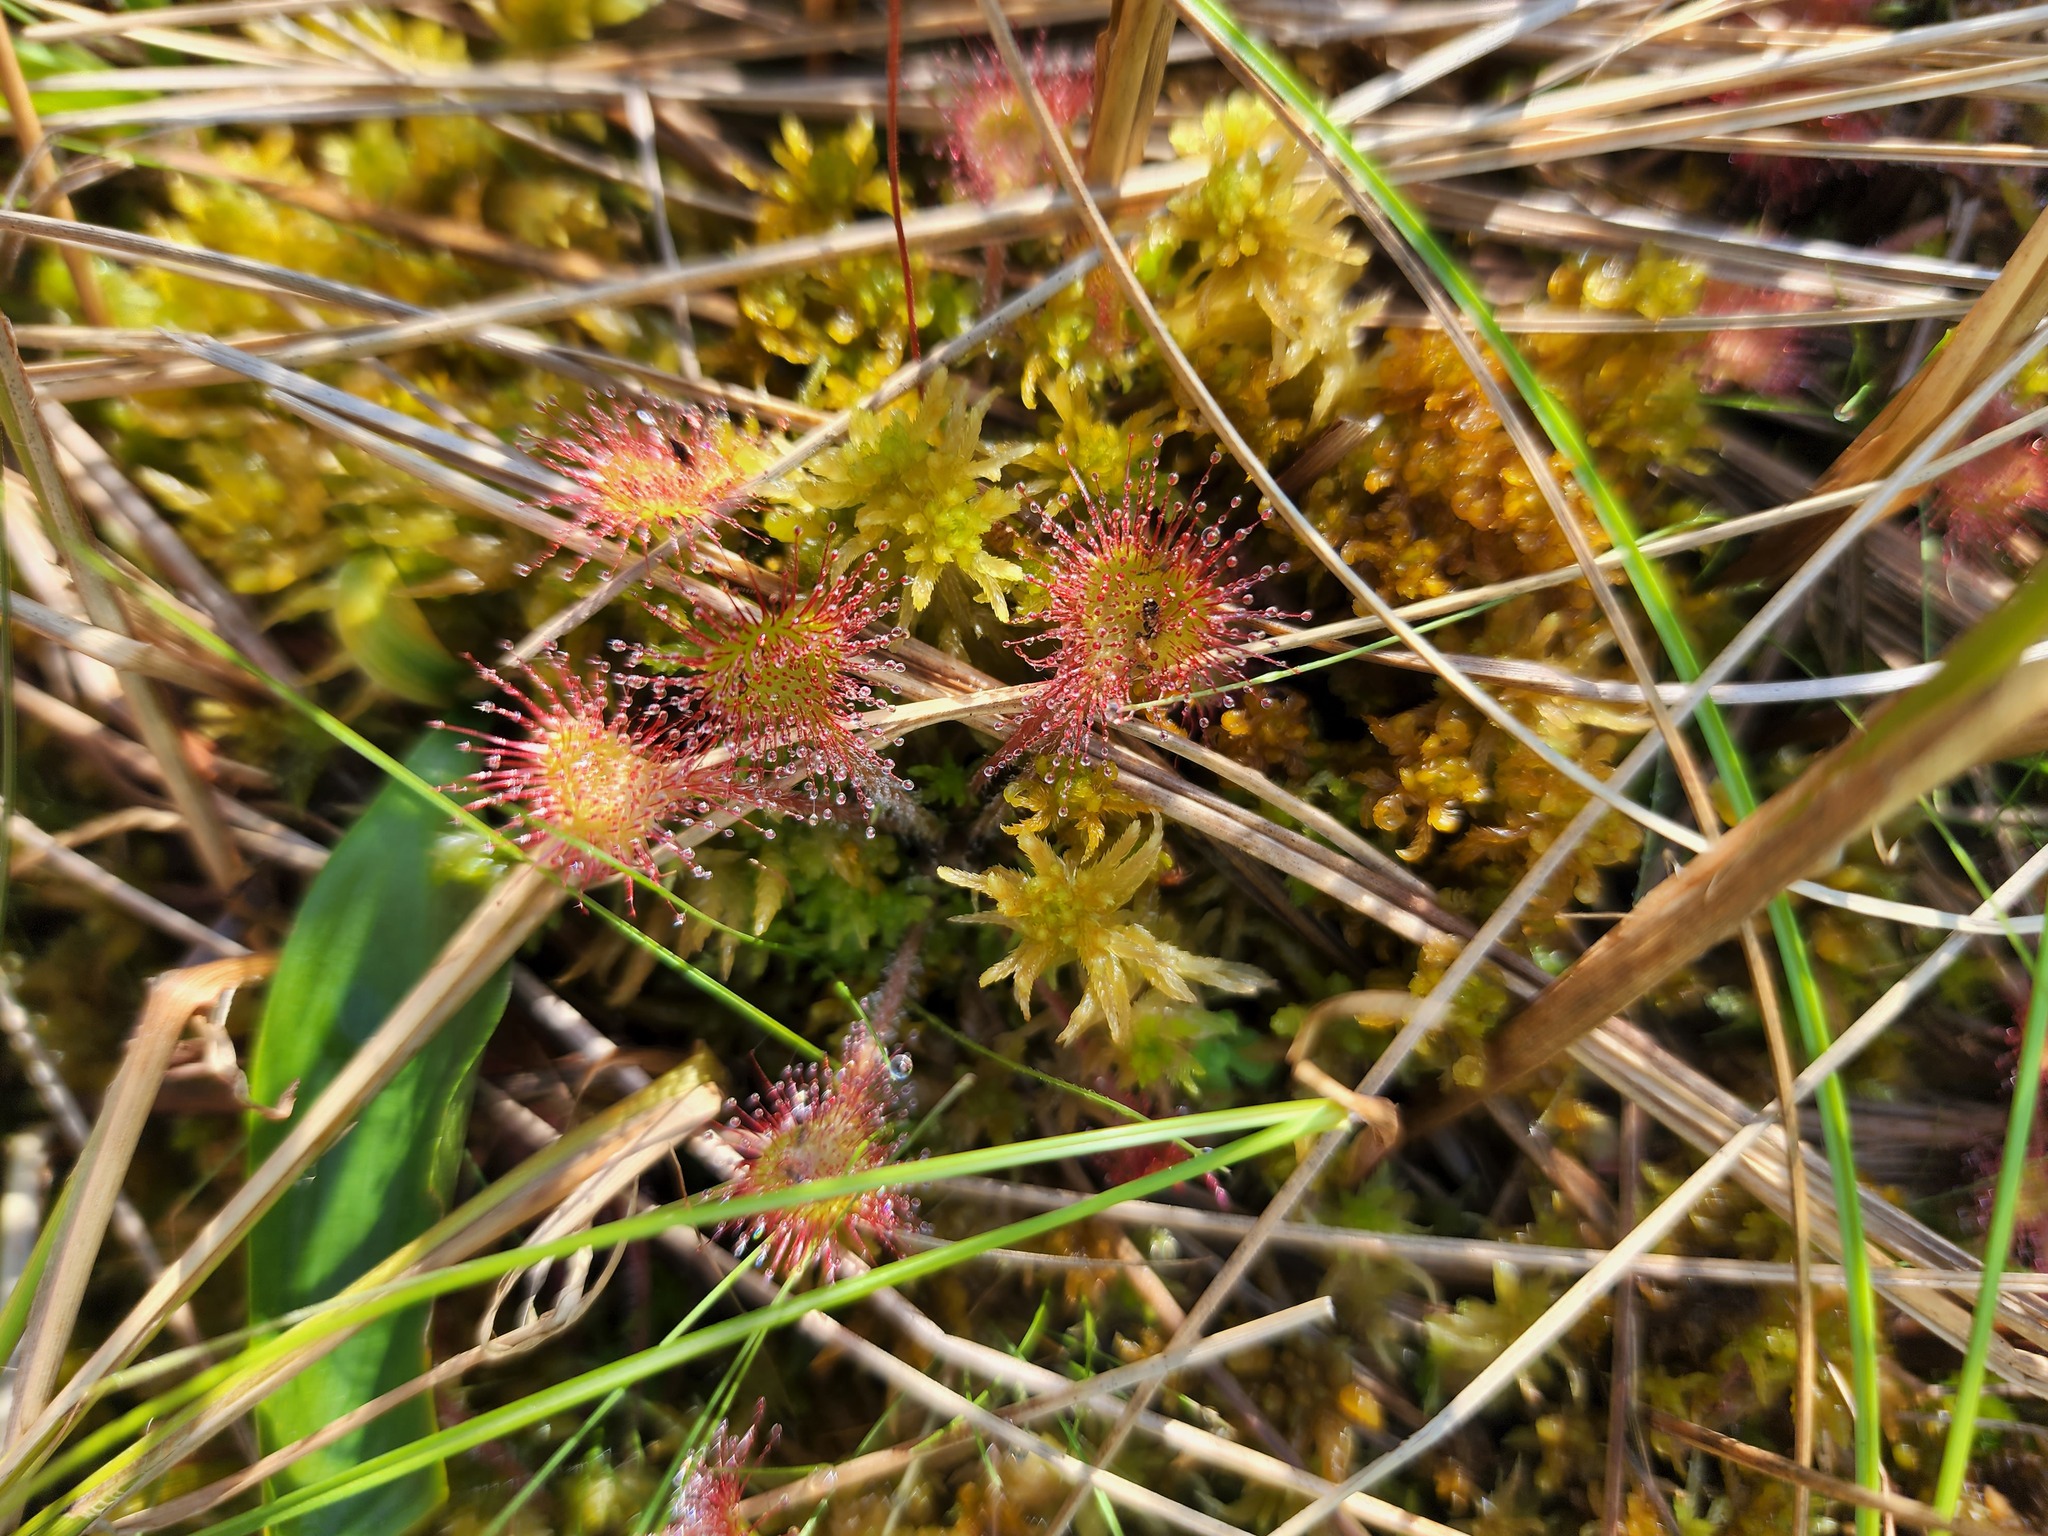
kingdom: Plantae
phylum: Tracheophyta
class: Magnoliopsida
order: Caryophyllales
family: Droseraceae
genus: Drosera
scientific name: Drosera rotundifolia
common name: Round-leaved sundew
